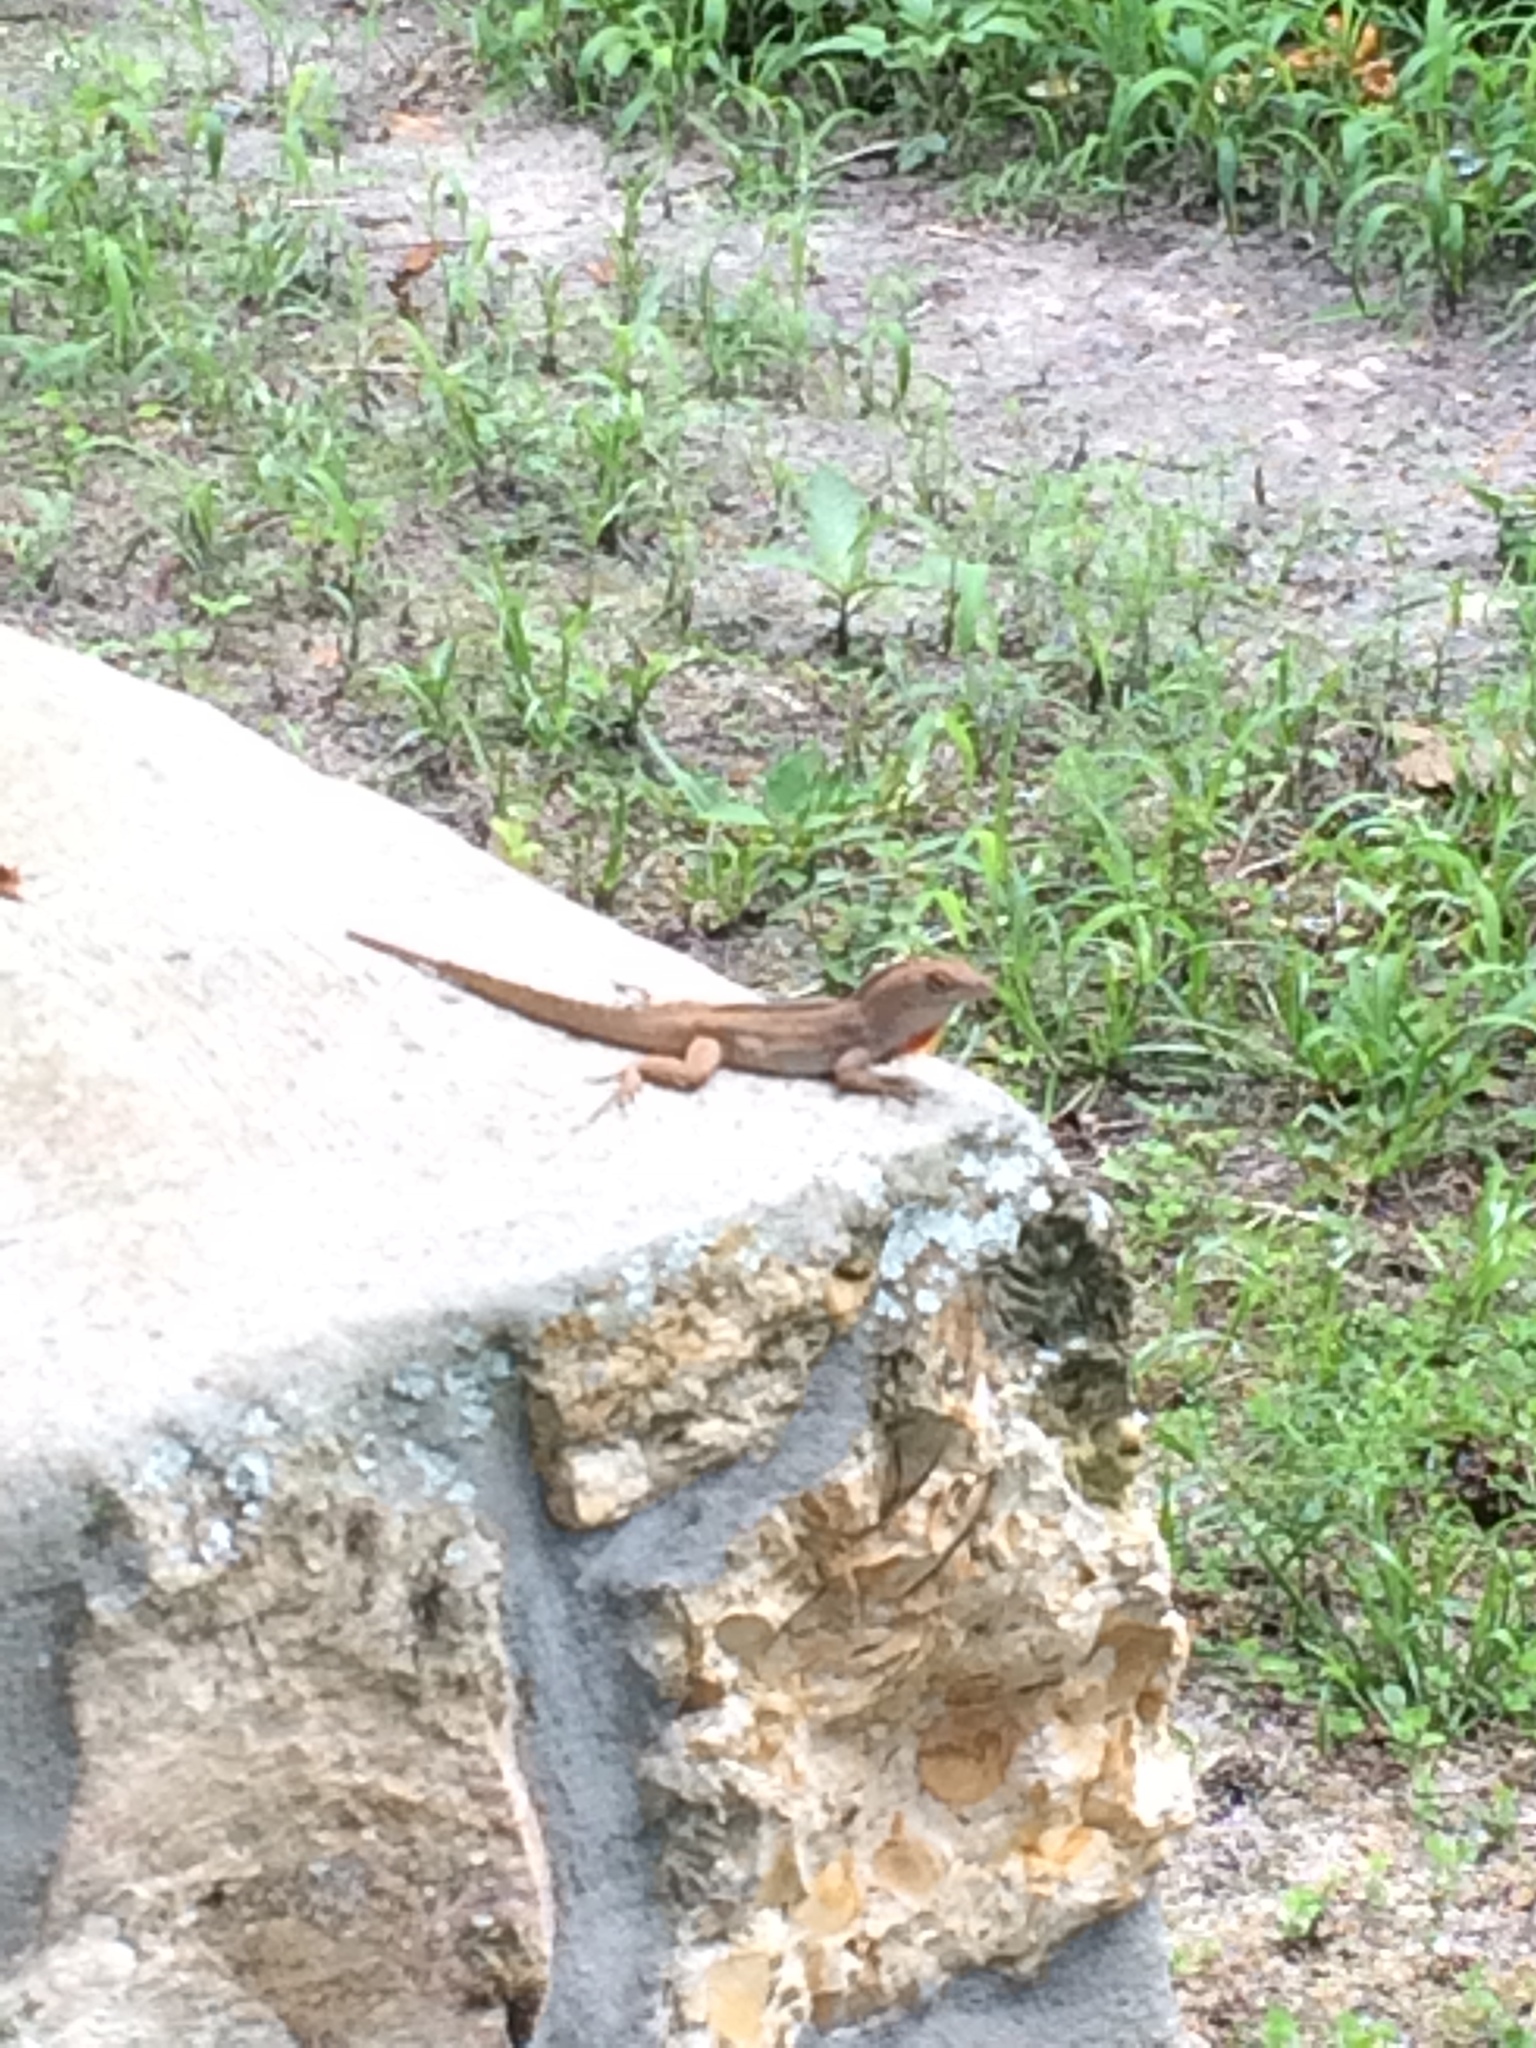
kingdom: Animalia
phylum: Chordata
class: Squamata
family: Dactyloidae
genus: Anolis
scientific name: Anolis sagrei
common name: Brown anole
